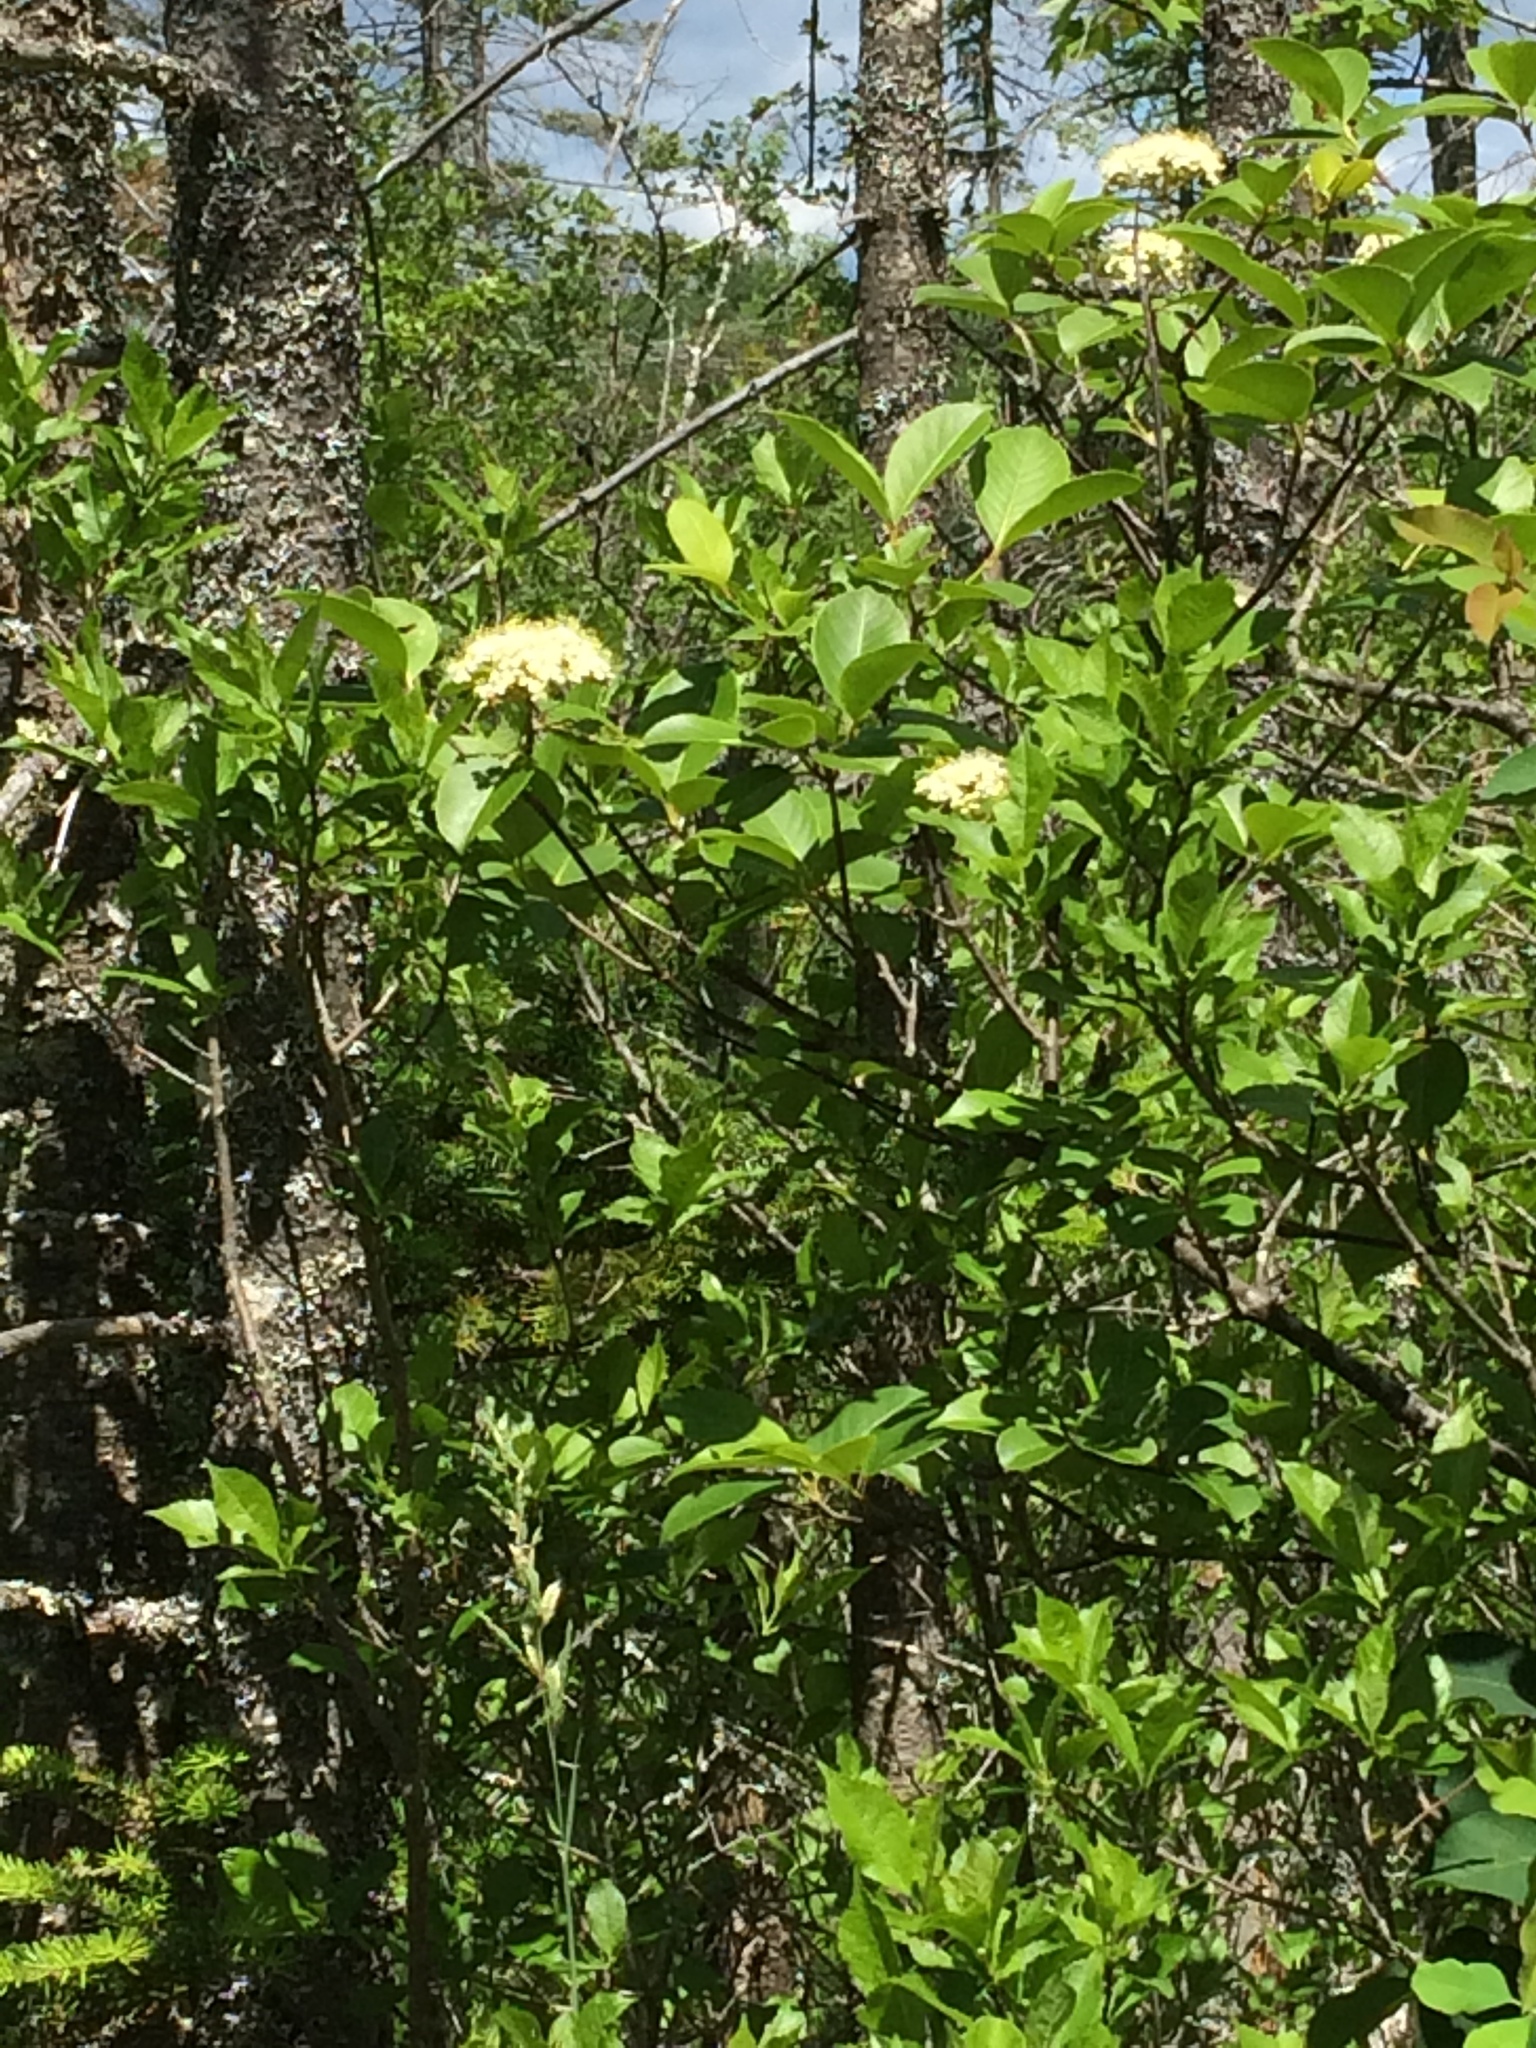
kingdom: Plantae
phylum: Tracheophyta
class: Magnoliopsida
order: Dipsacales
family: Viburnaceae
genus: Viburnum
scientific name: Viburnum cassinoides
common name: Swamp haw
